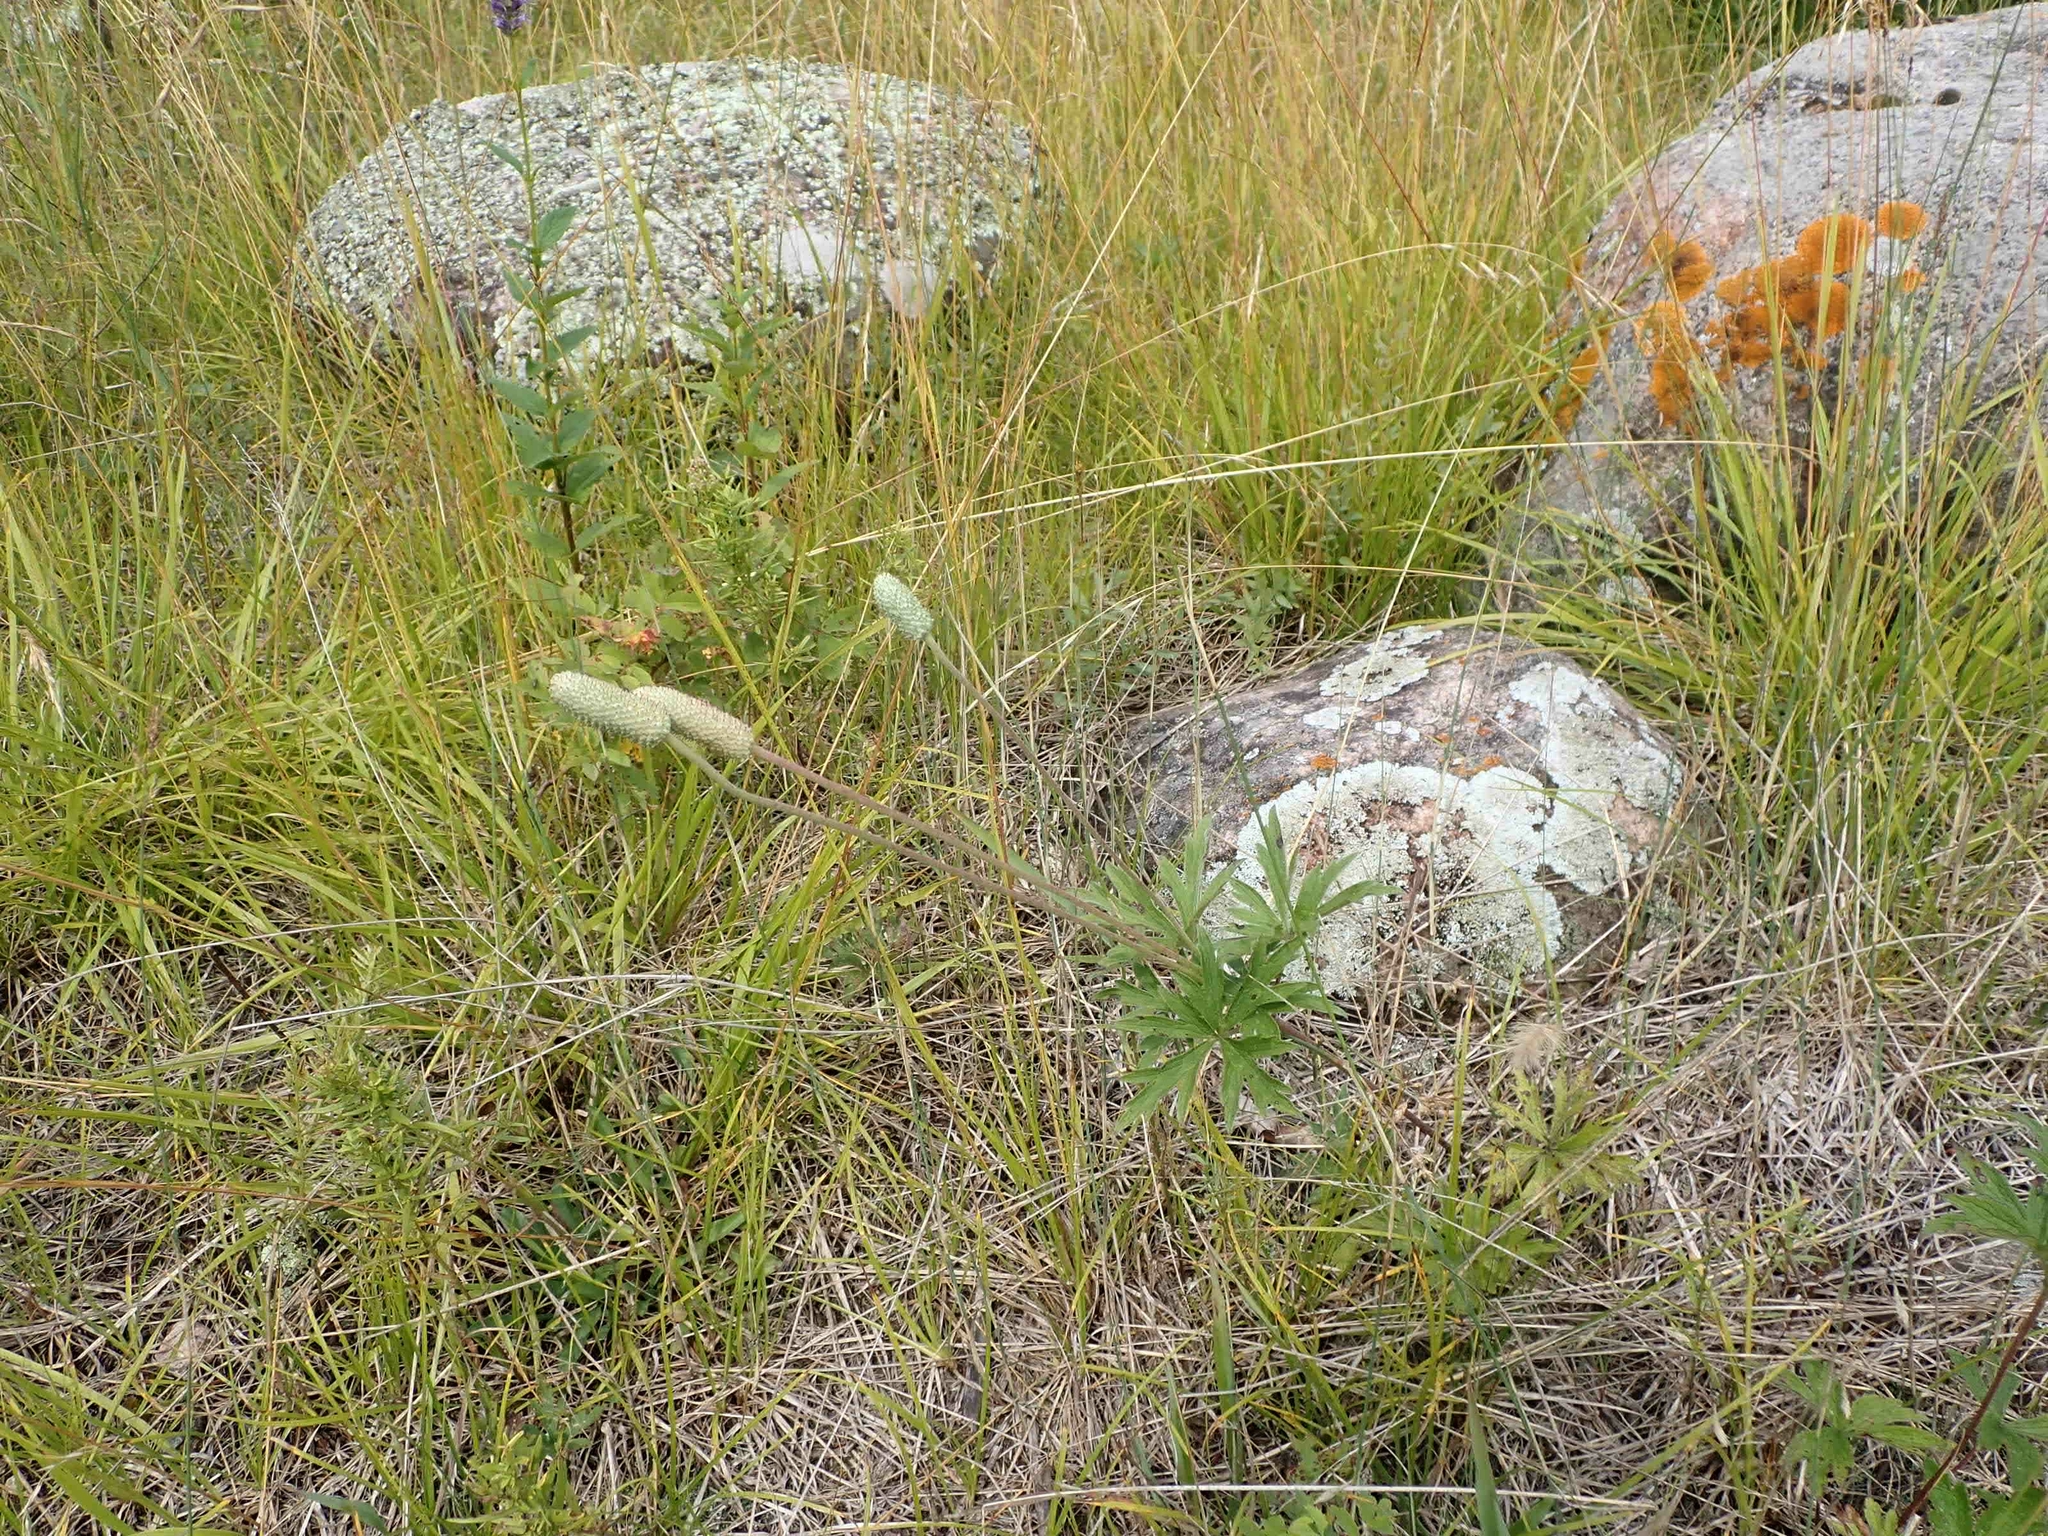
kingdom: Plantae
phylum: Tracheophyta
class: Magnoliopsida
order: Ranunculales
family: Ranunculaceae
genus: Anemone
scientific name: Anemone cylindrica
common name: Candle anemone
